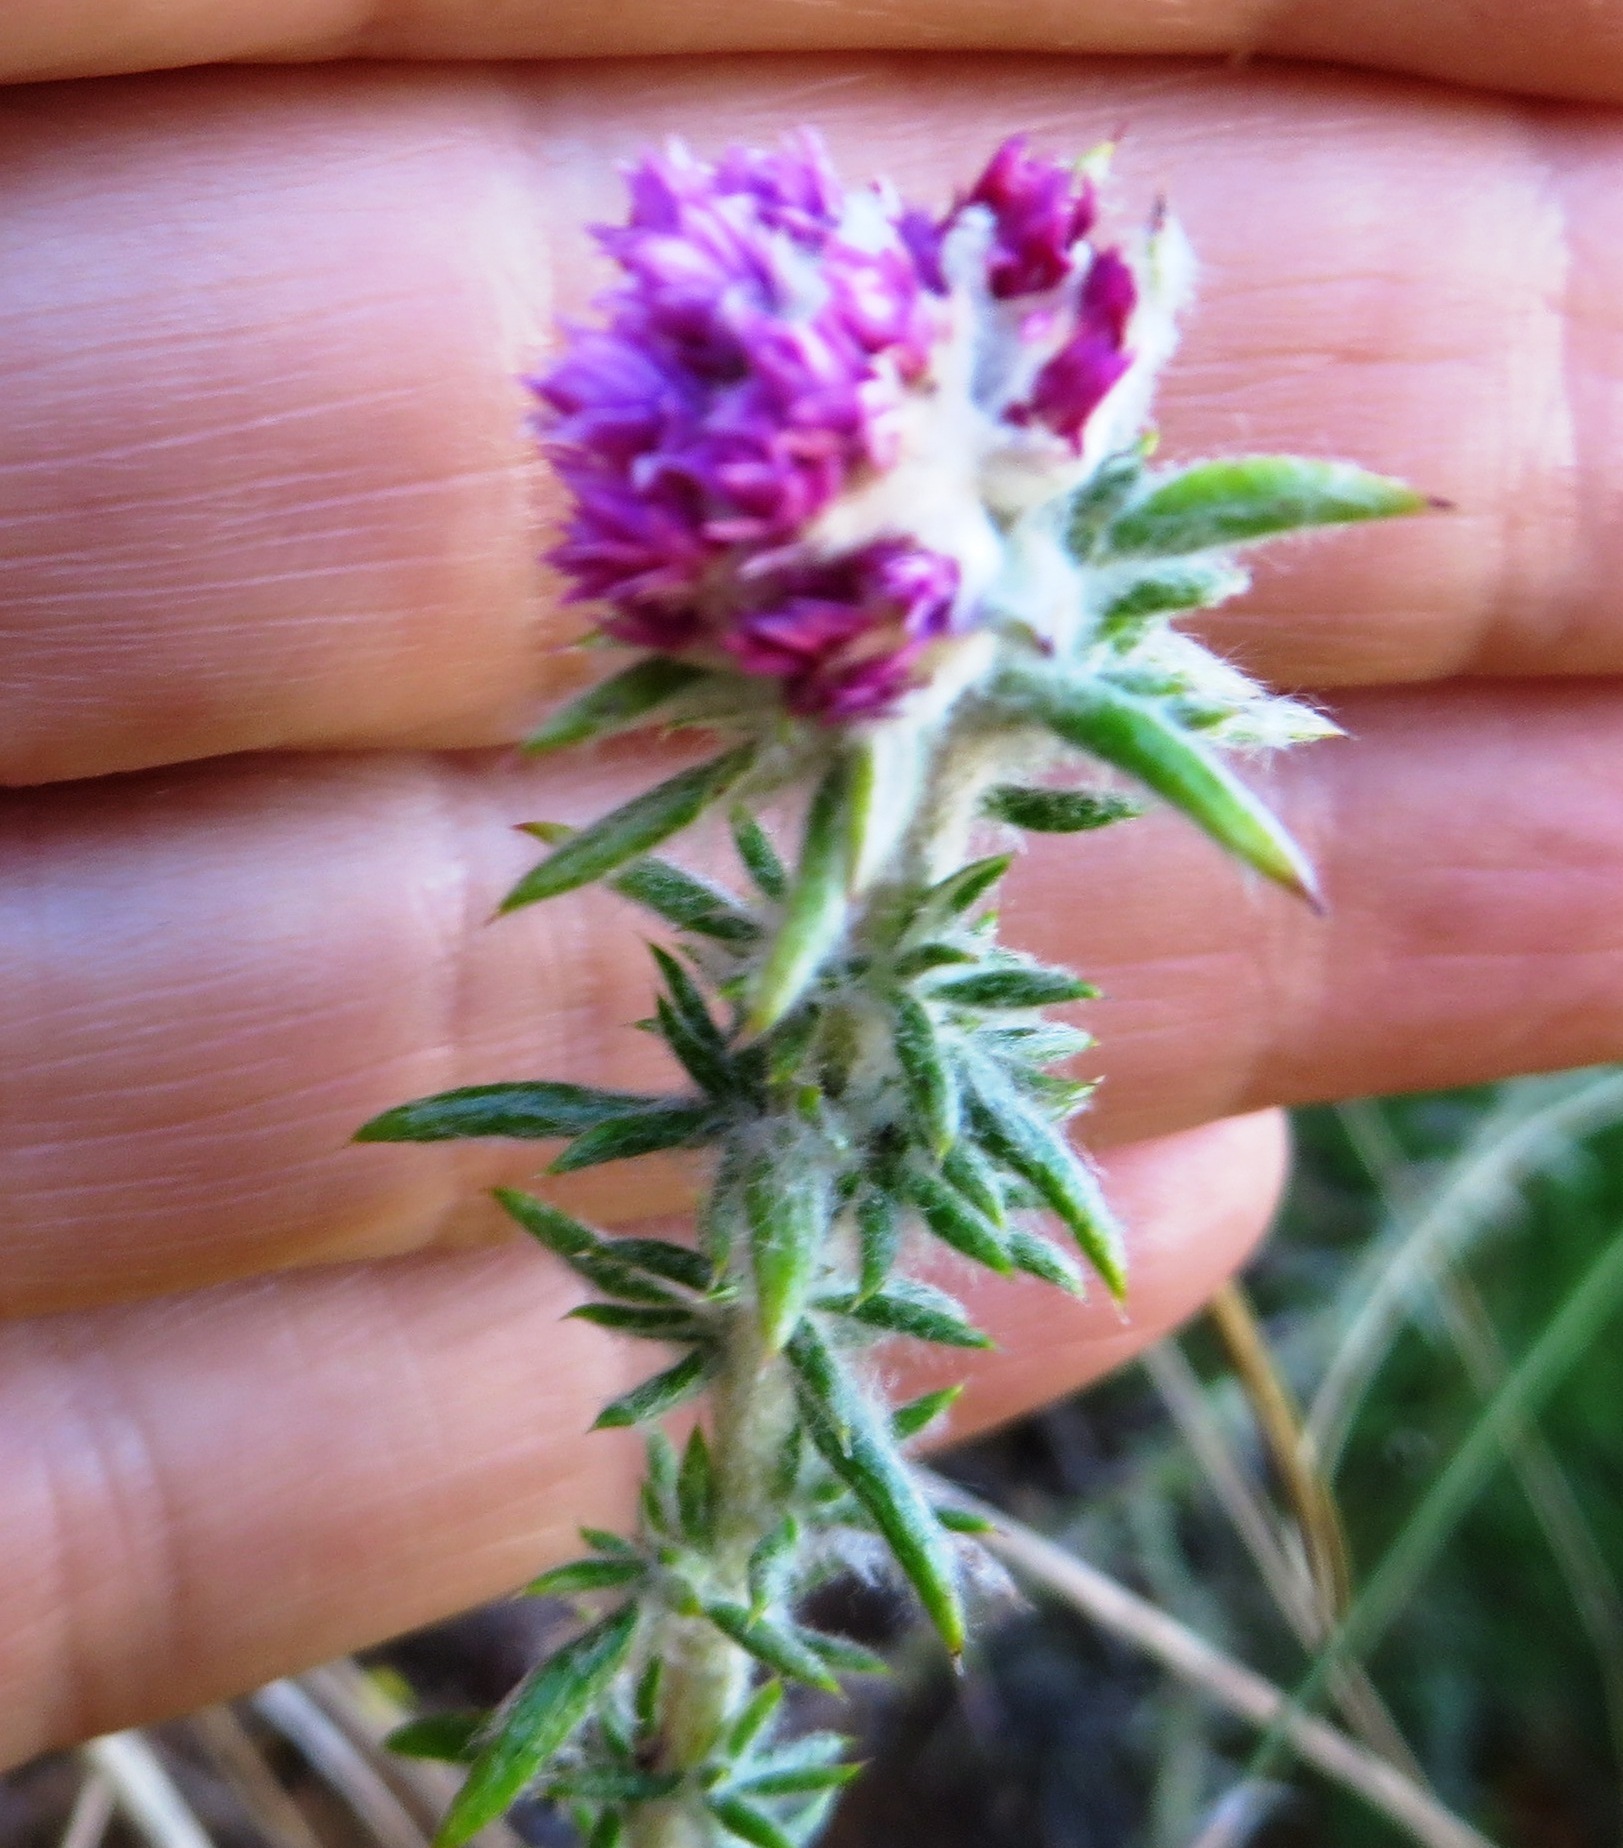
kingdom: Plantae
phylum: Tracheophyta
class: Magnoliopsida
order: Asterales
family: Asteraceae
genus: Metalasia
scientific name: Metalasia erubescens
